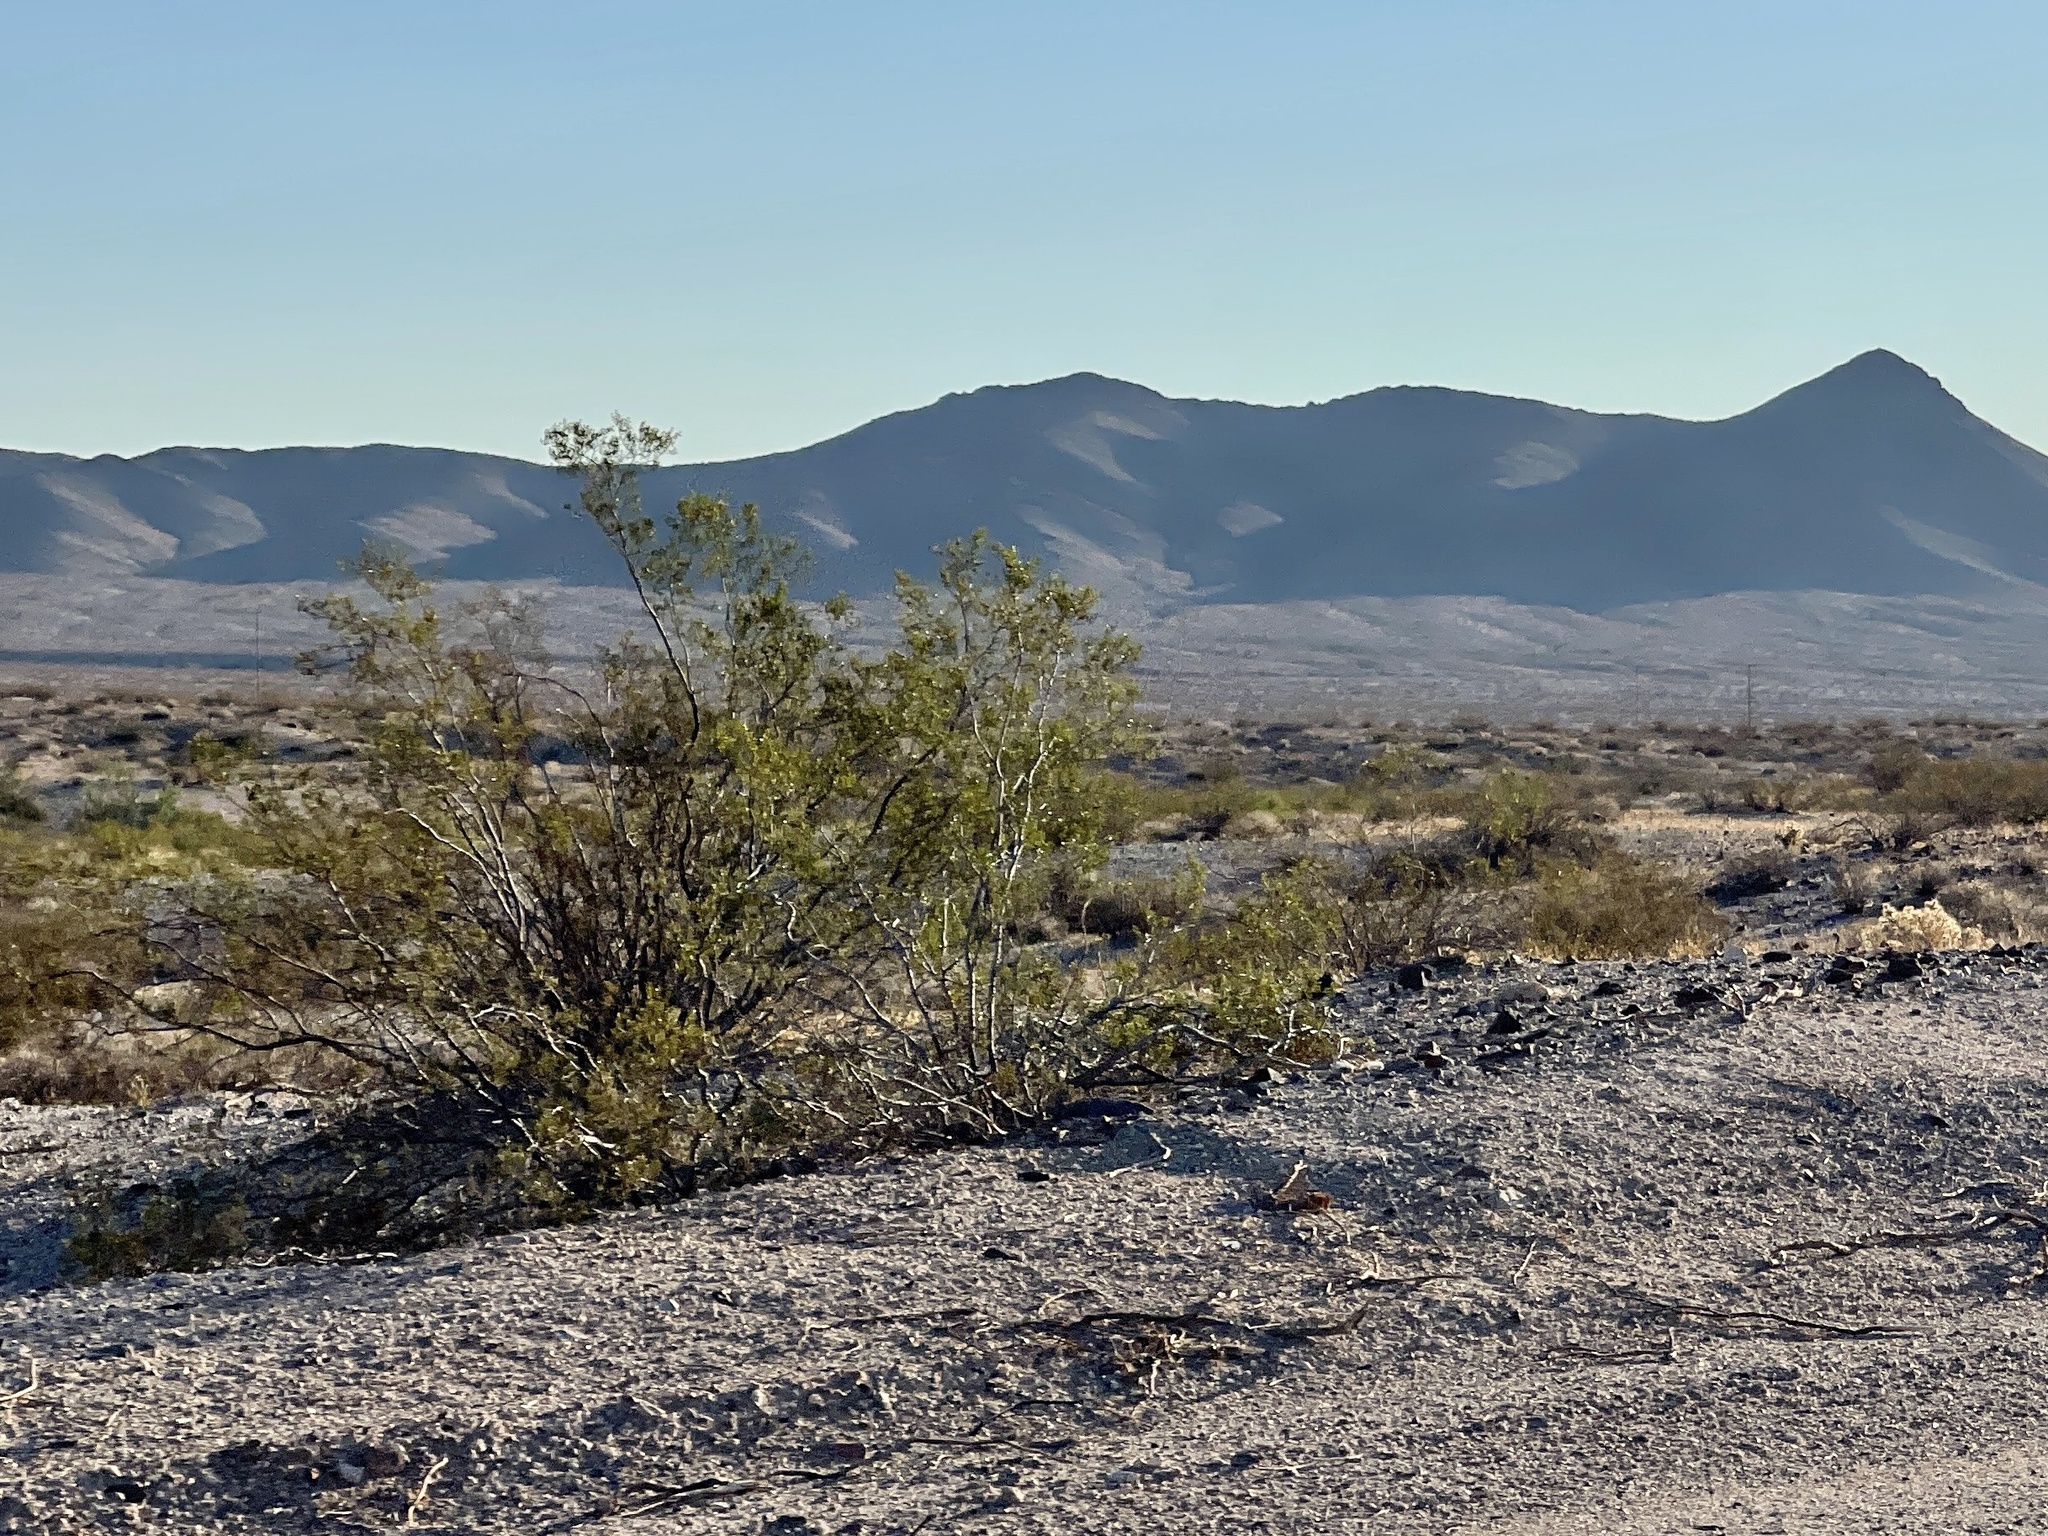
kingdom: Plantae
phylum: Tracheophyta
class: Magnoliopsida
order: Zygophyllales
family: Zygophyllaceae
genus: Larrea
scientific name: Larrea tridentata
